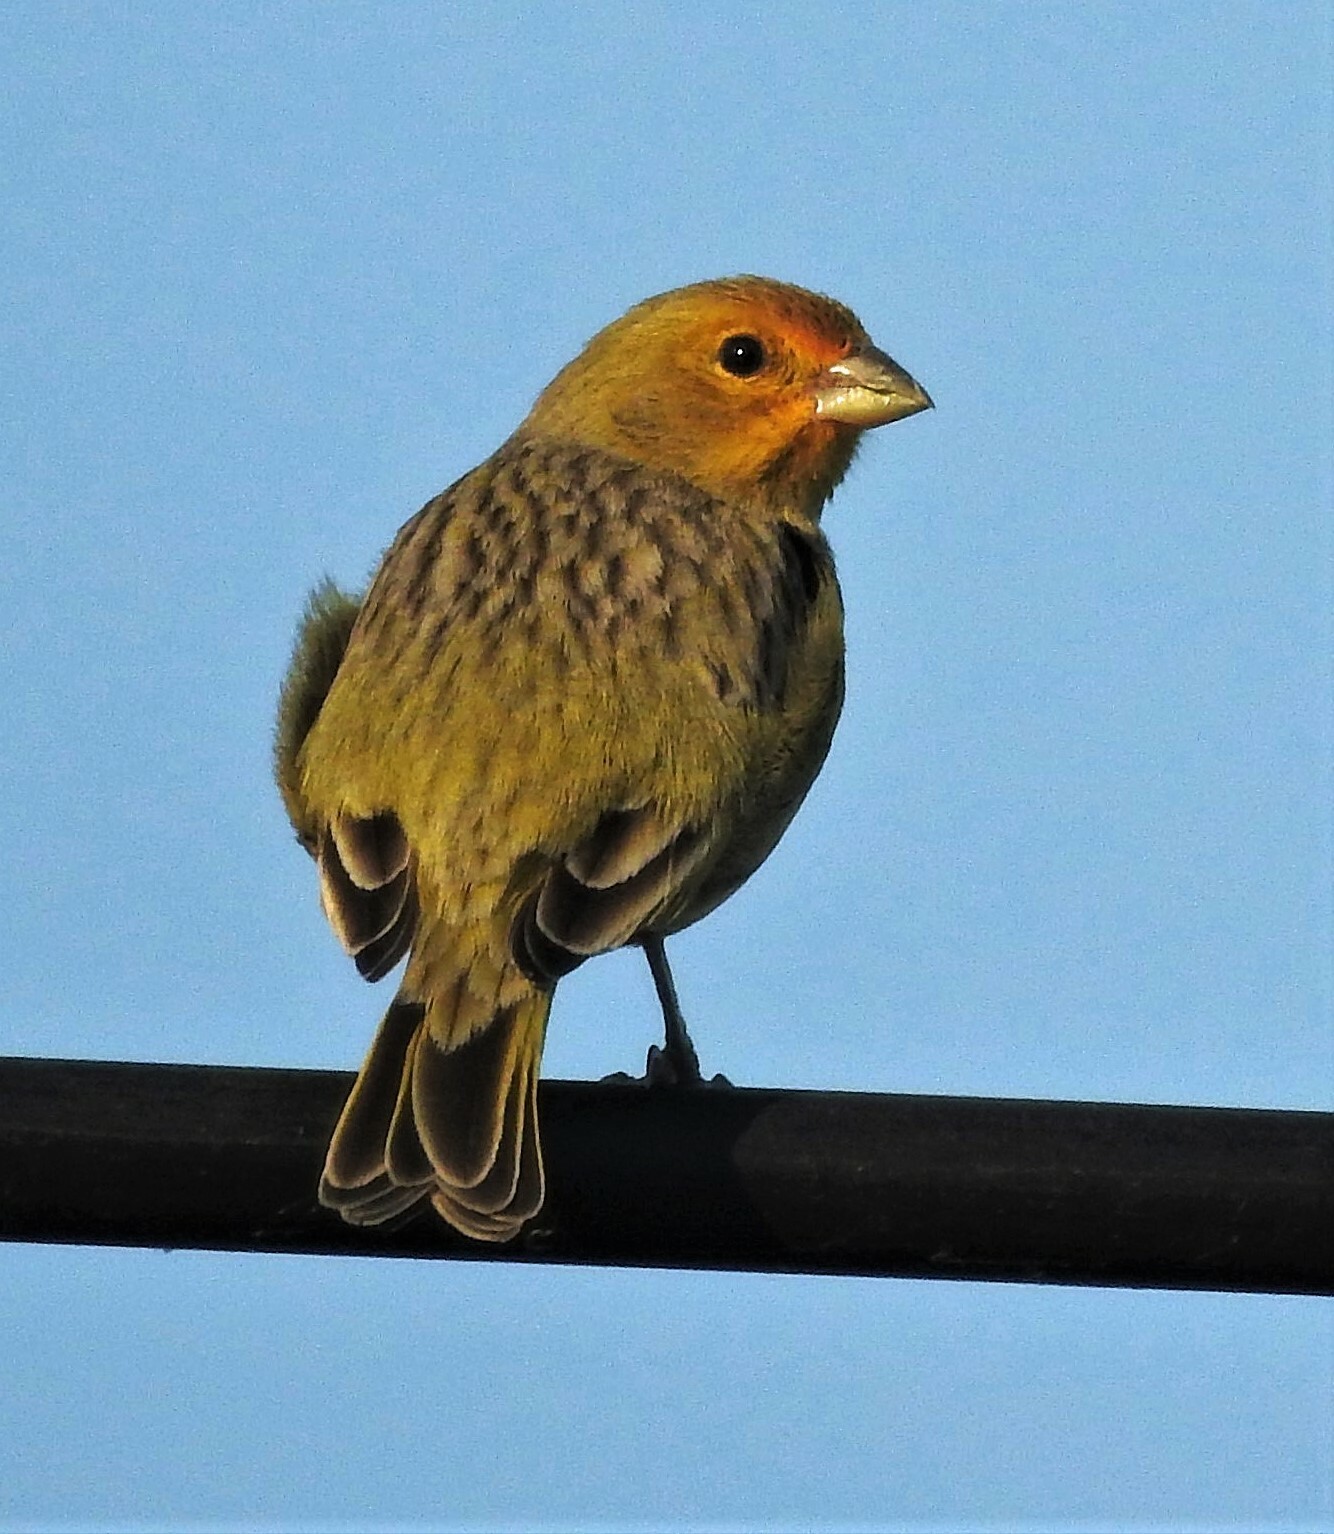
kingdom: Animalia
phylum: Chordata
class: Aves
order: Passeriformes
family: Thraupidae
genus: Sicalis
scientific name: Sicalis flaveola
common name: Saffron finch
